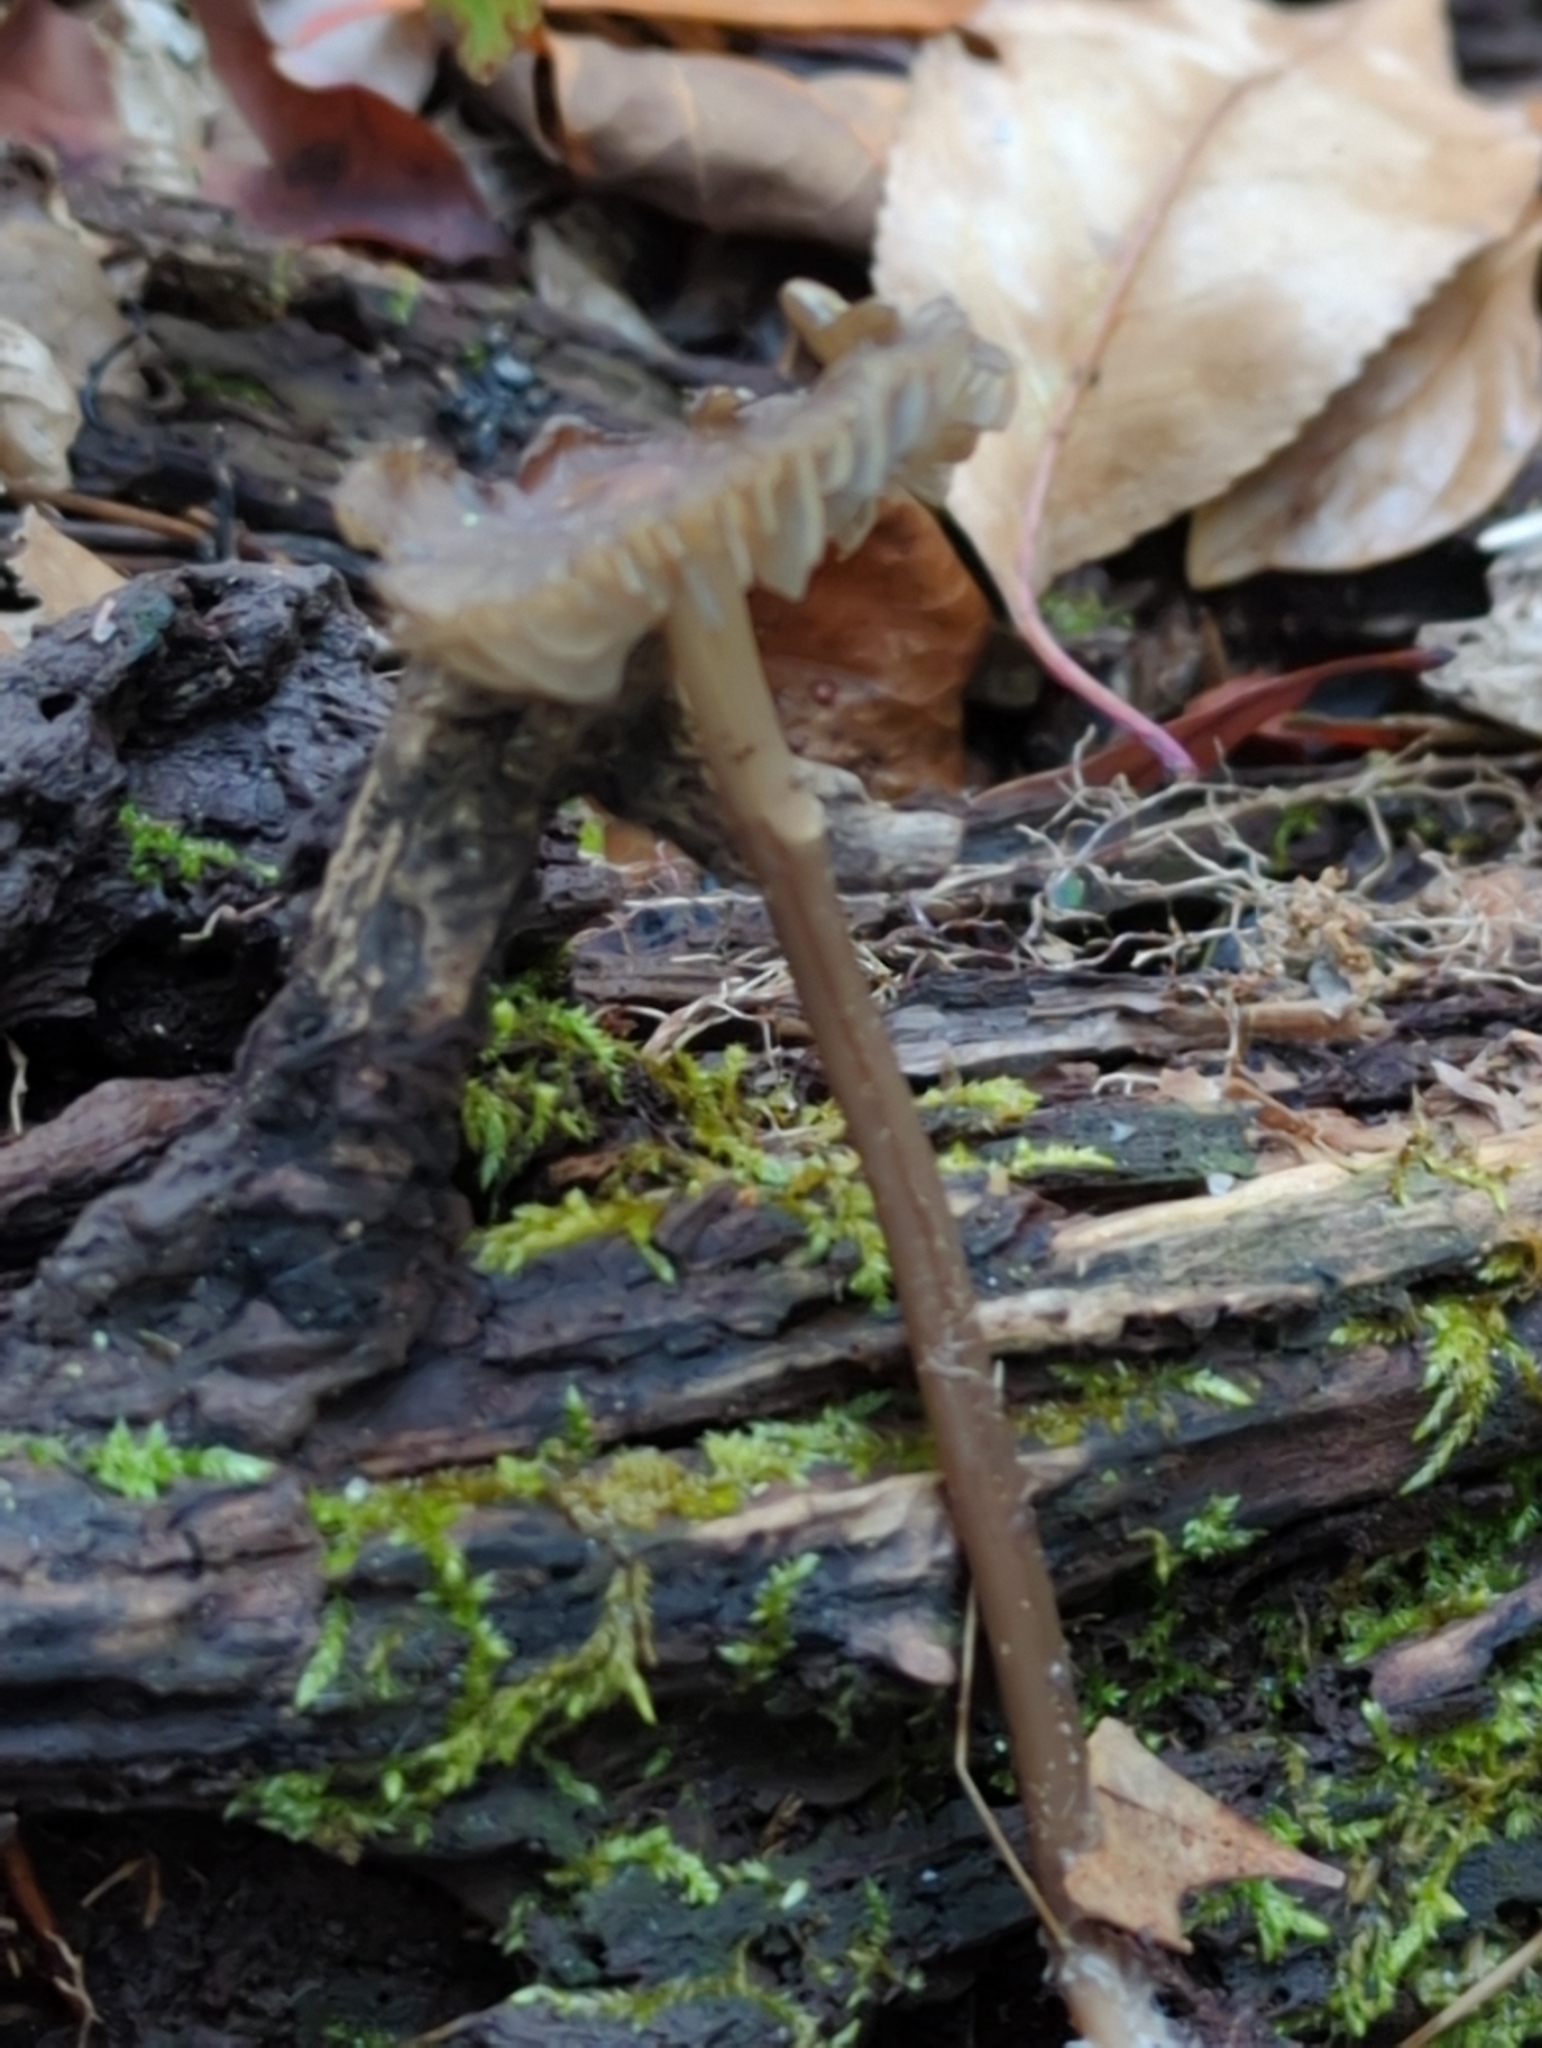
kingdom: Fungi
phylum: Basidiomycota
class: Agaricomycetes
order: Agaricales
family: Mycenaceae
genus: Mycena
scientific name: Mycena galericulata
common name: Bonnet mycena
